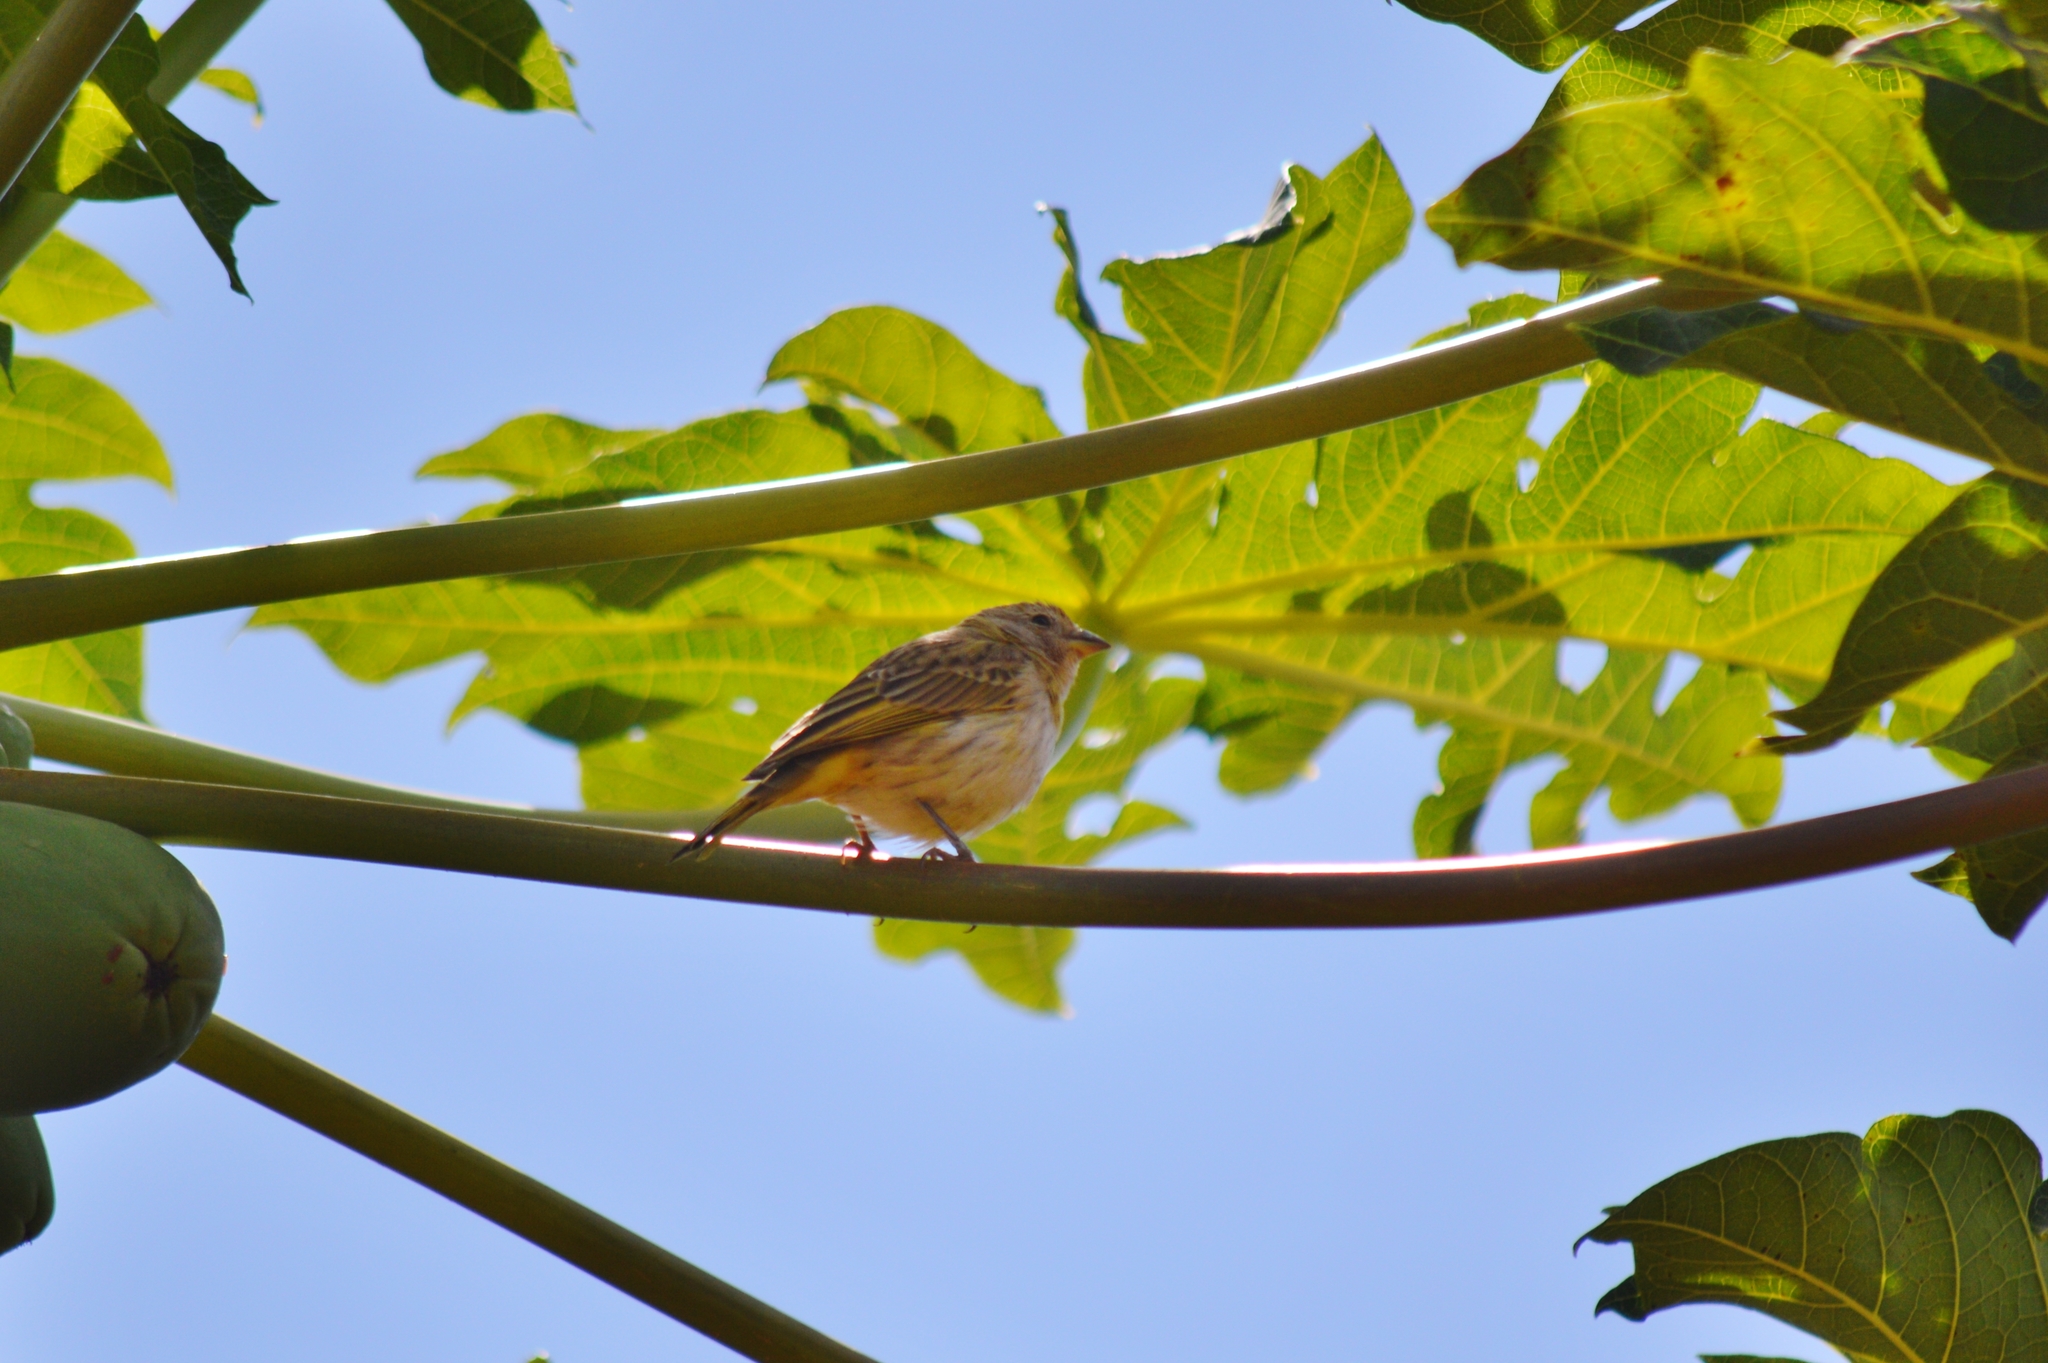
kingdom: Animalia
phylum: Chordata
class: Aves
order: Passeriformes
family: Thraupidae
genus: Sicalis
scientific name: Sicalis flaveola
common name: Saffron finch
